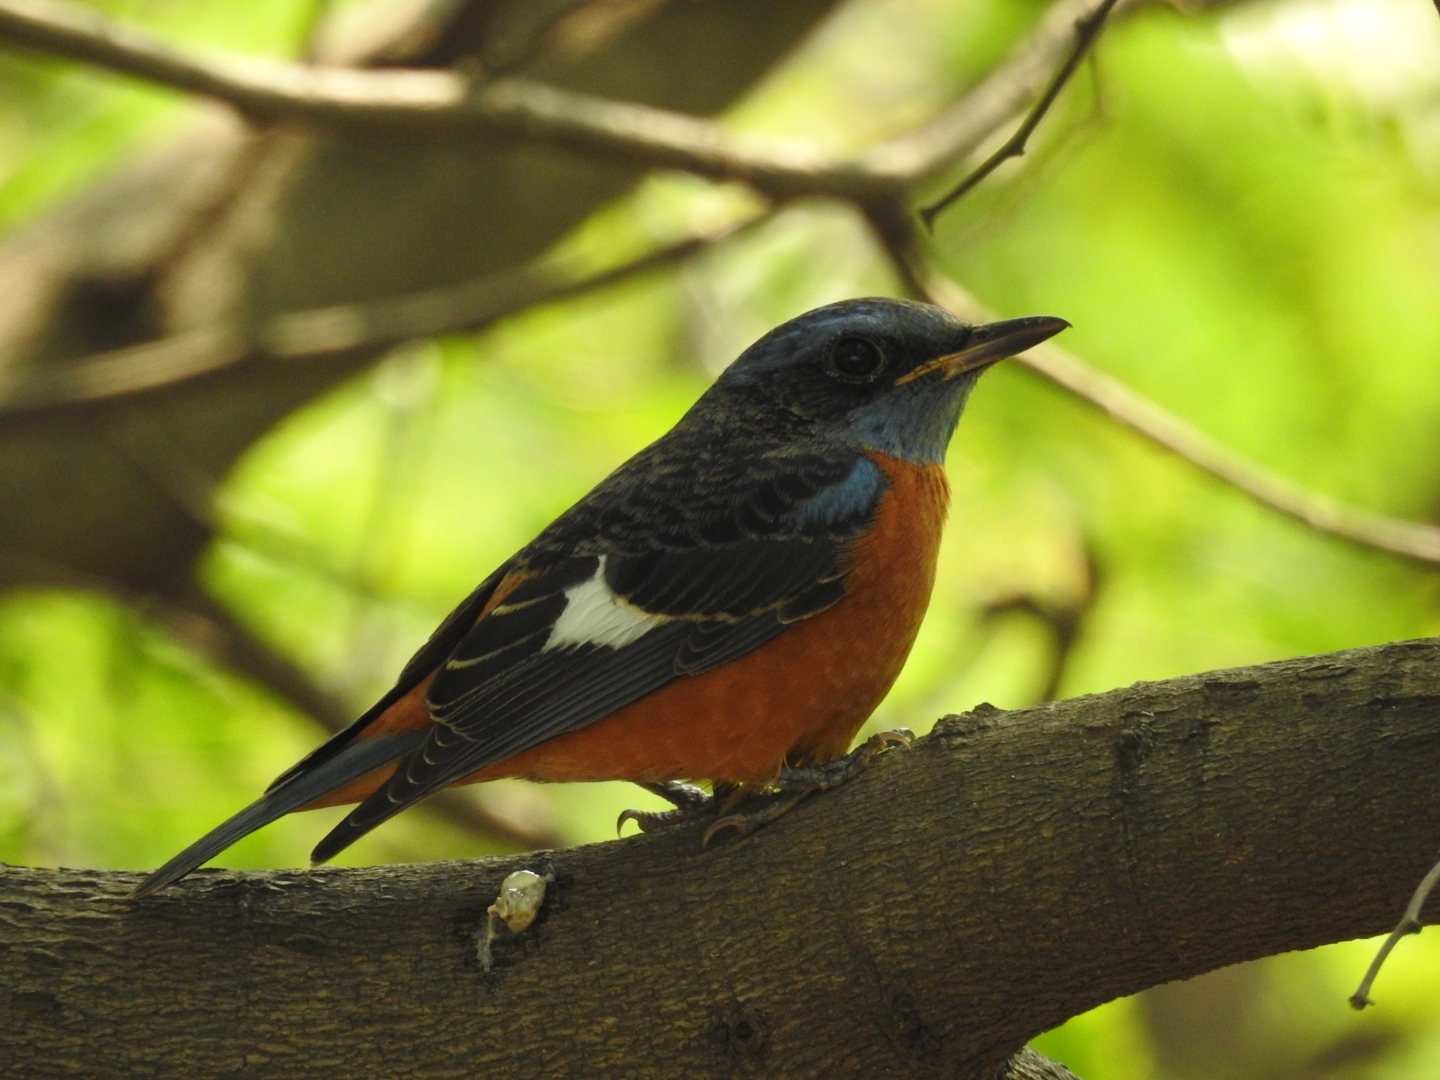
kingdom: Animalia
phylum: Chordata
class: Aves
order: Passeriformes
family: Muscicapidae
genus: Monticola
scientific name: Monticola cinclorhynchus
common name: Blue-capped rock thrush
